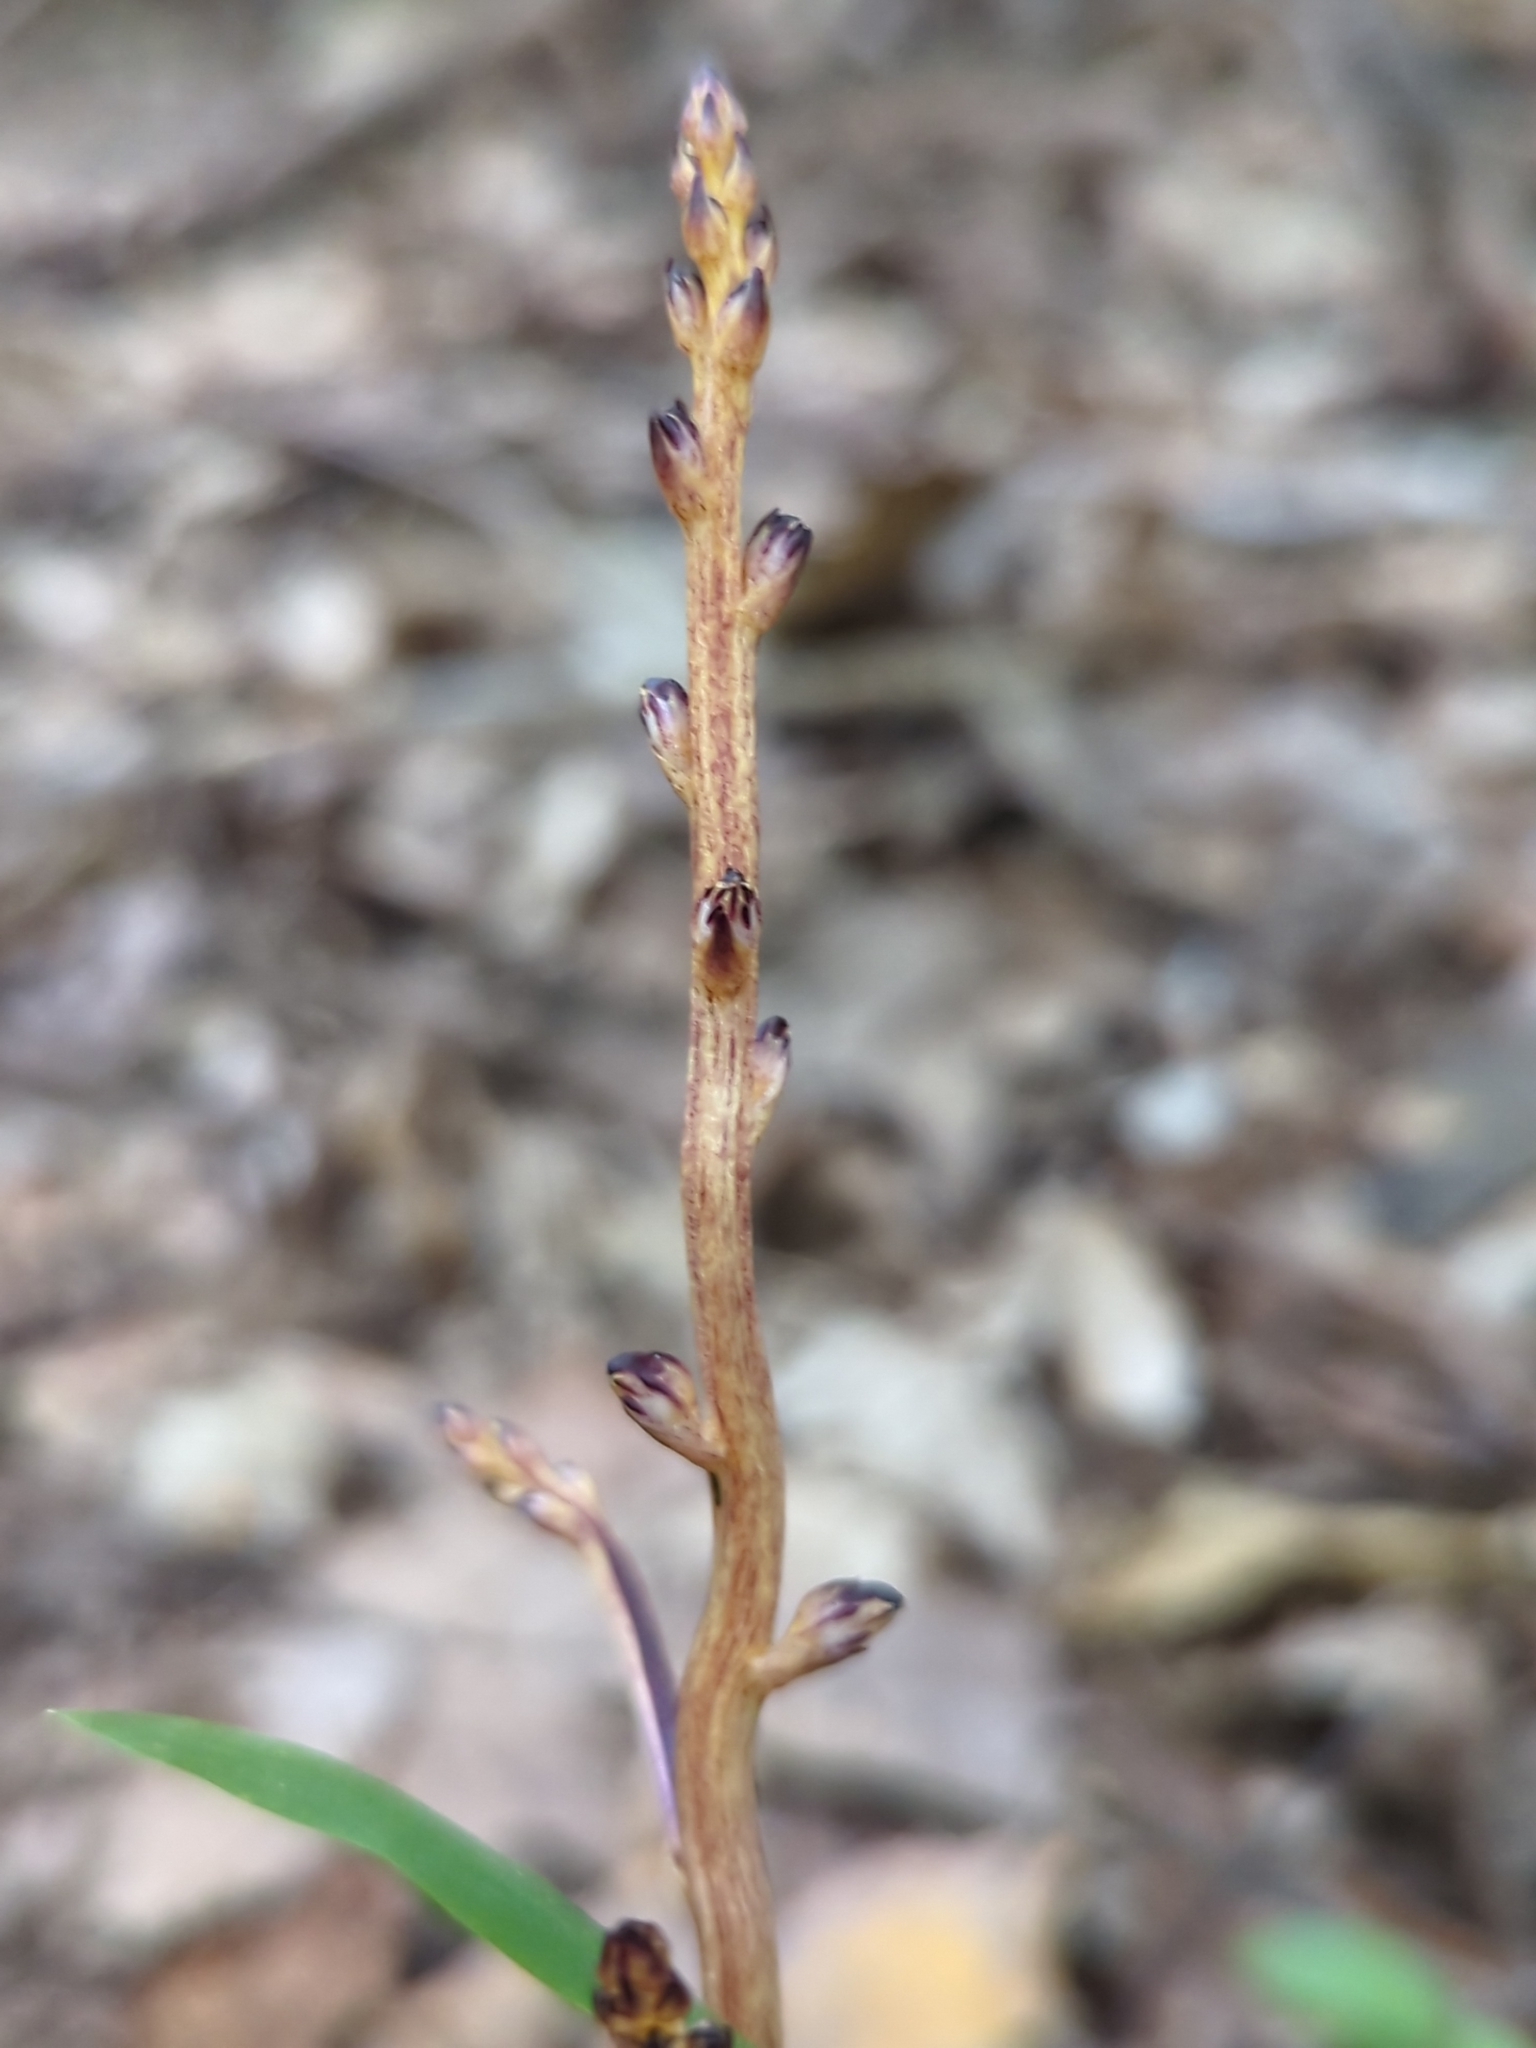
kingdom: Plantae
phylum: Tracheophyta
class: Magnoliopsida
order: Lamiales
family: Orobanchaceae
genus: Epifagus
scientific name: Epifagus virginiana
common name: Beechdrops
